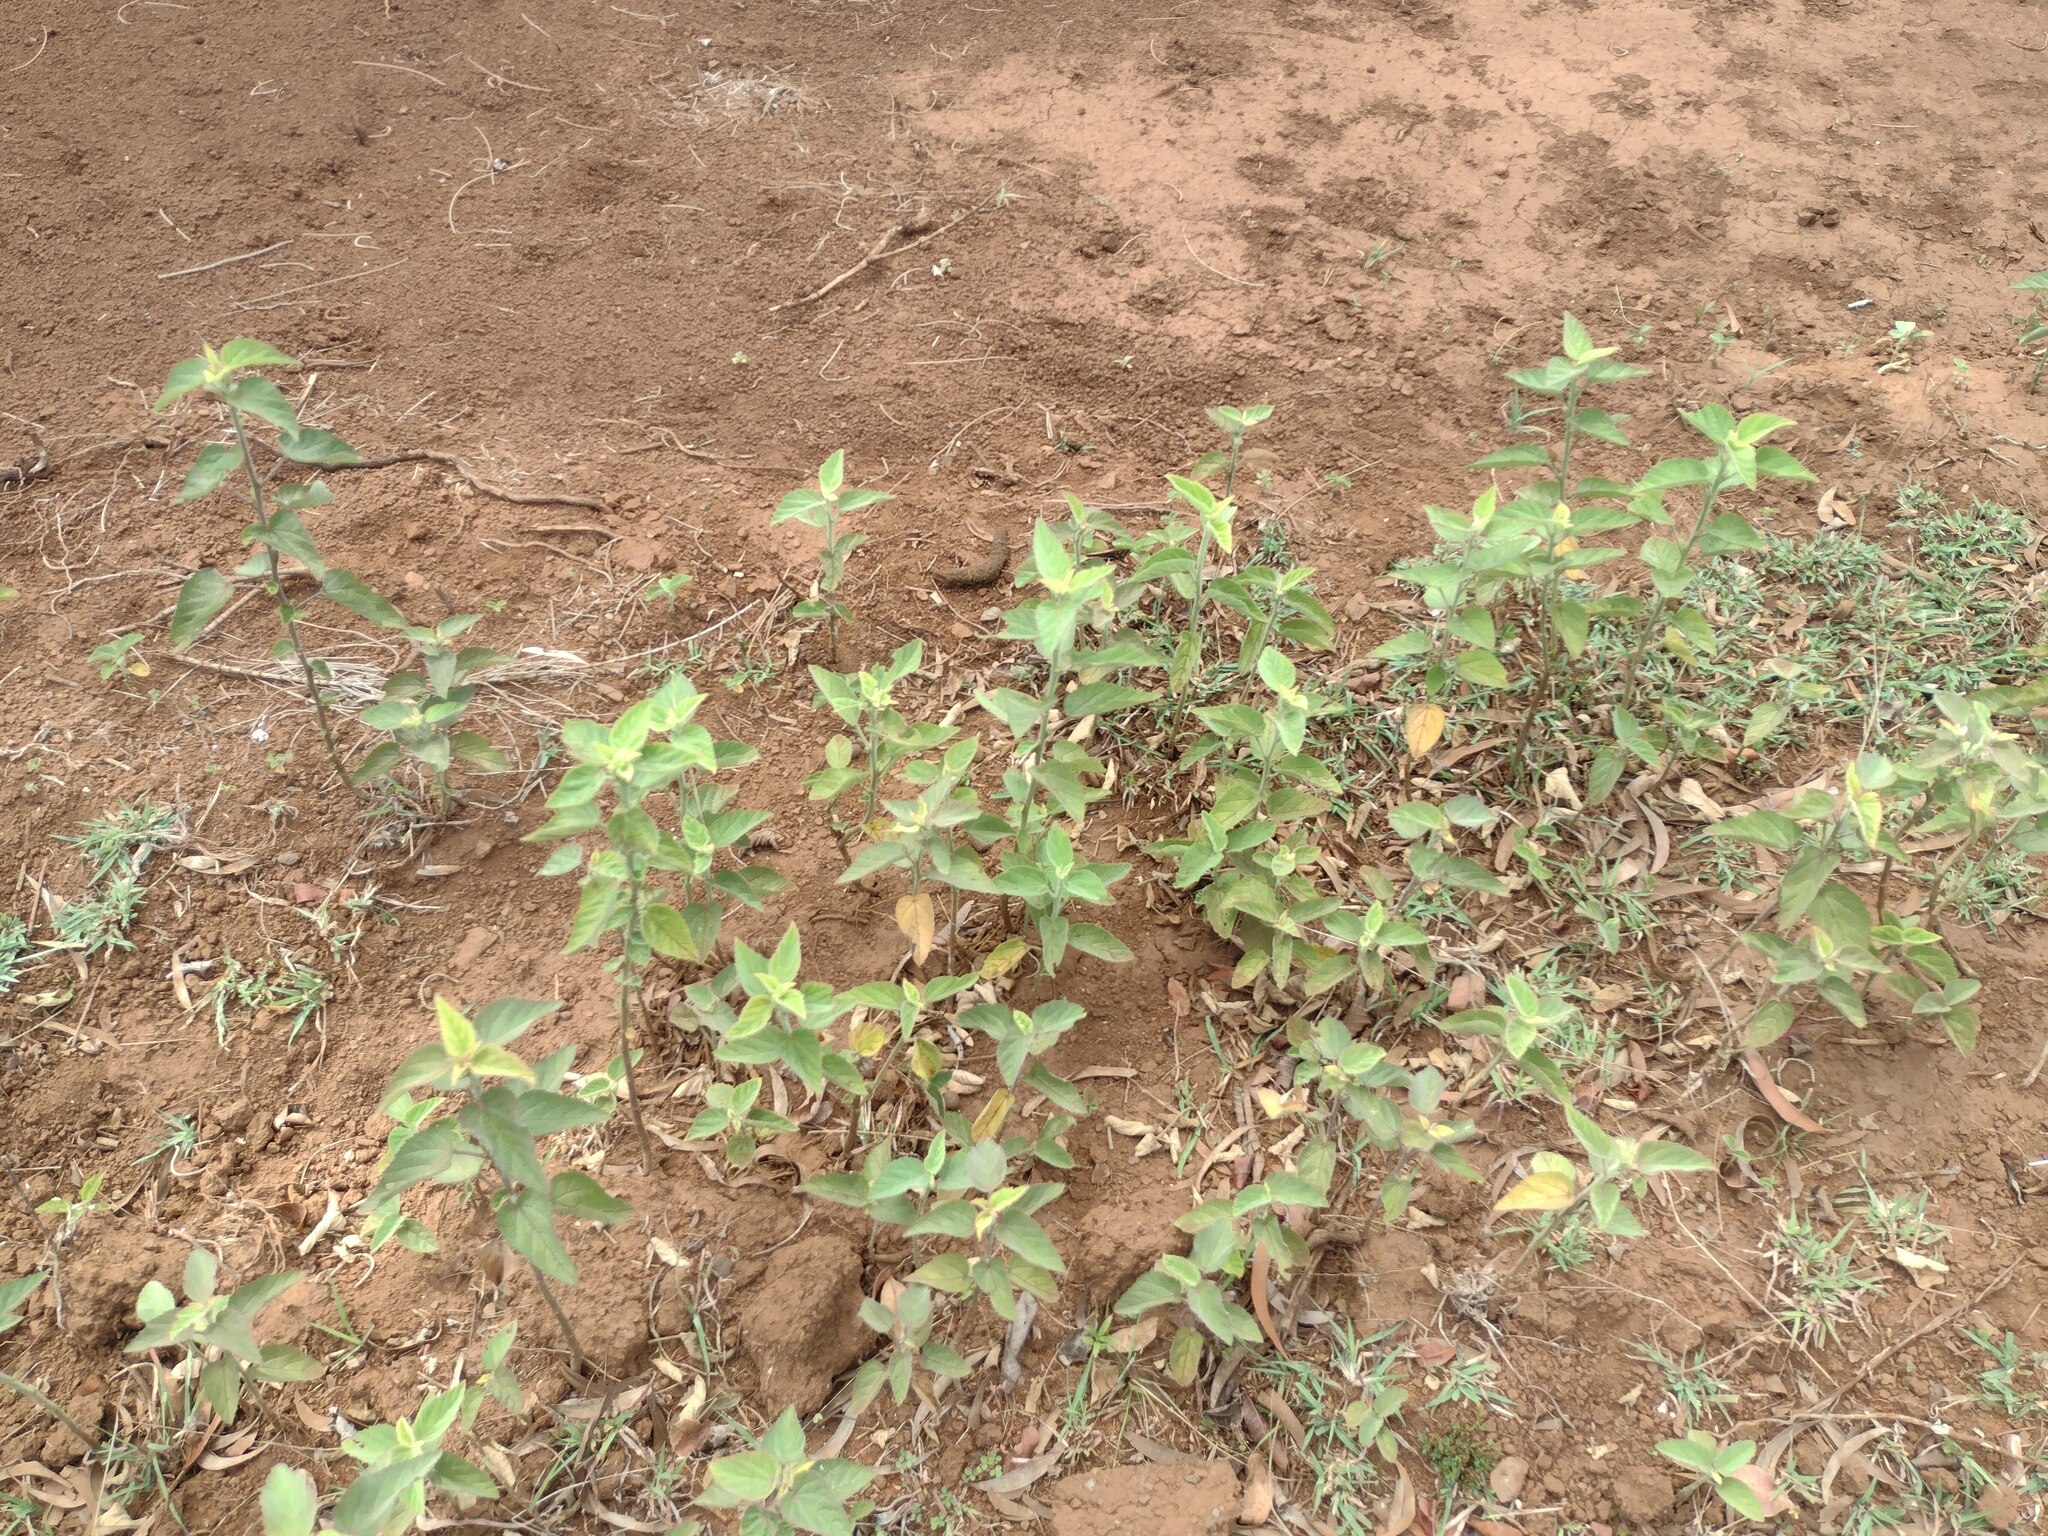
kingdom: Plantae
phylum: Tracheophyta
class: Magnoliopsida
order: Malvales
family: Malvaceae
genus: Sida
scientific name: Sida cordifolia
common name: Ilima
